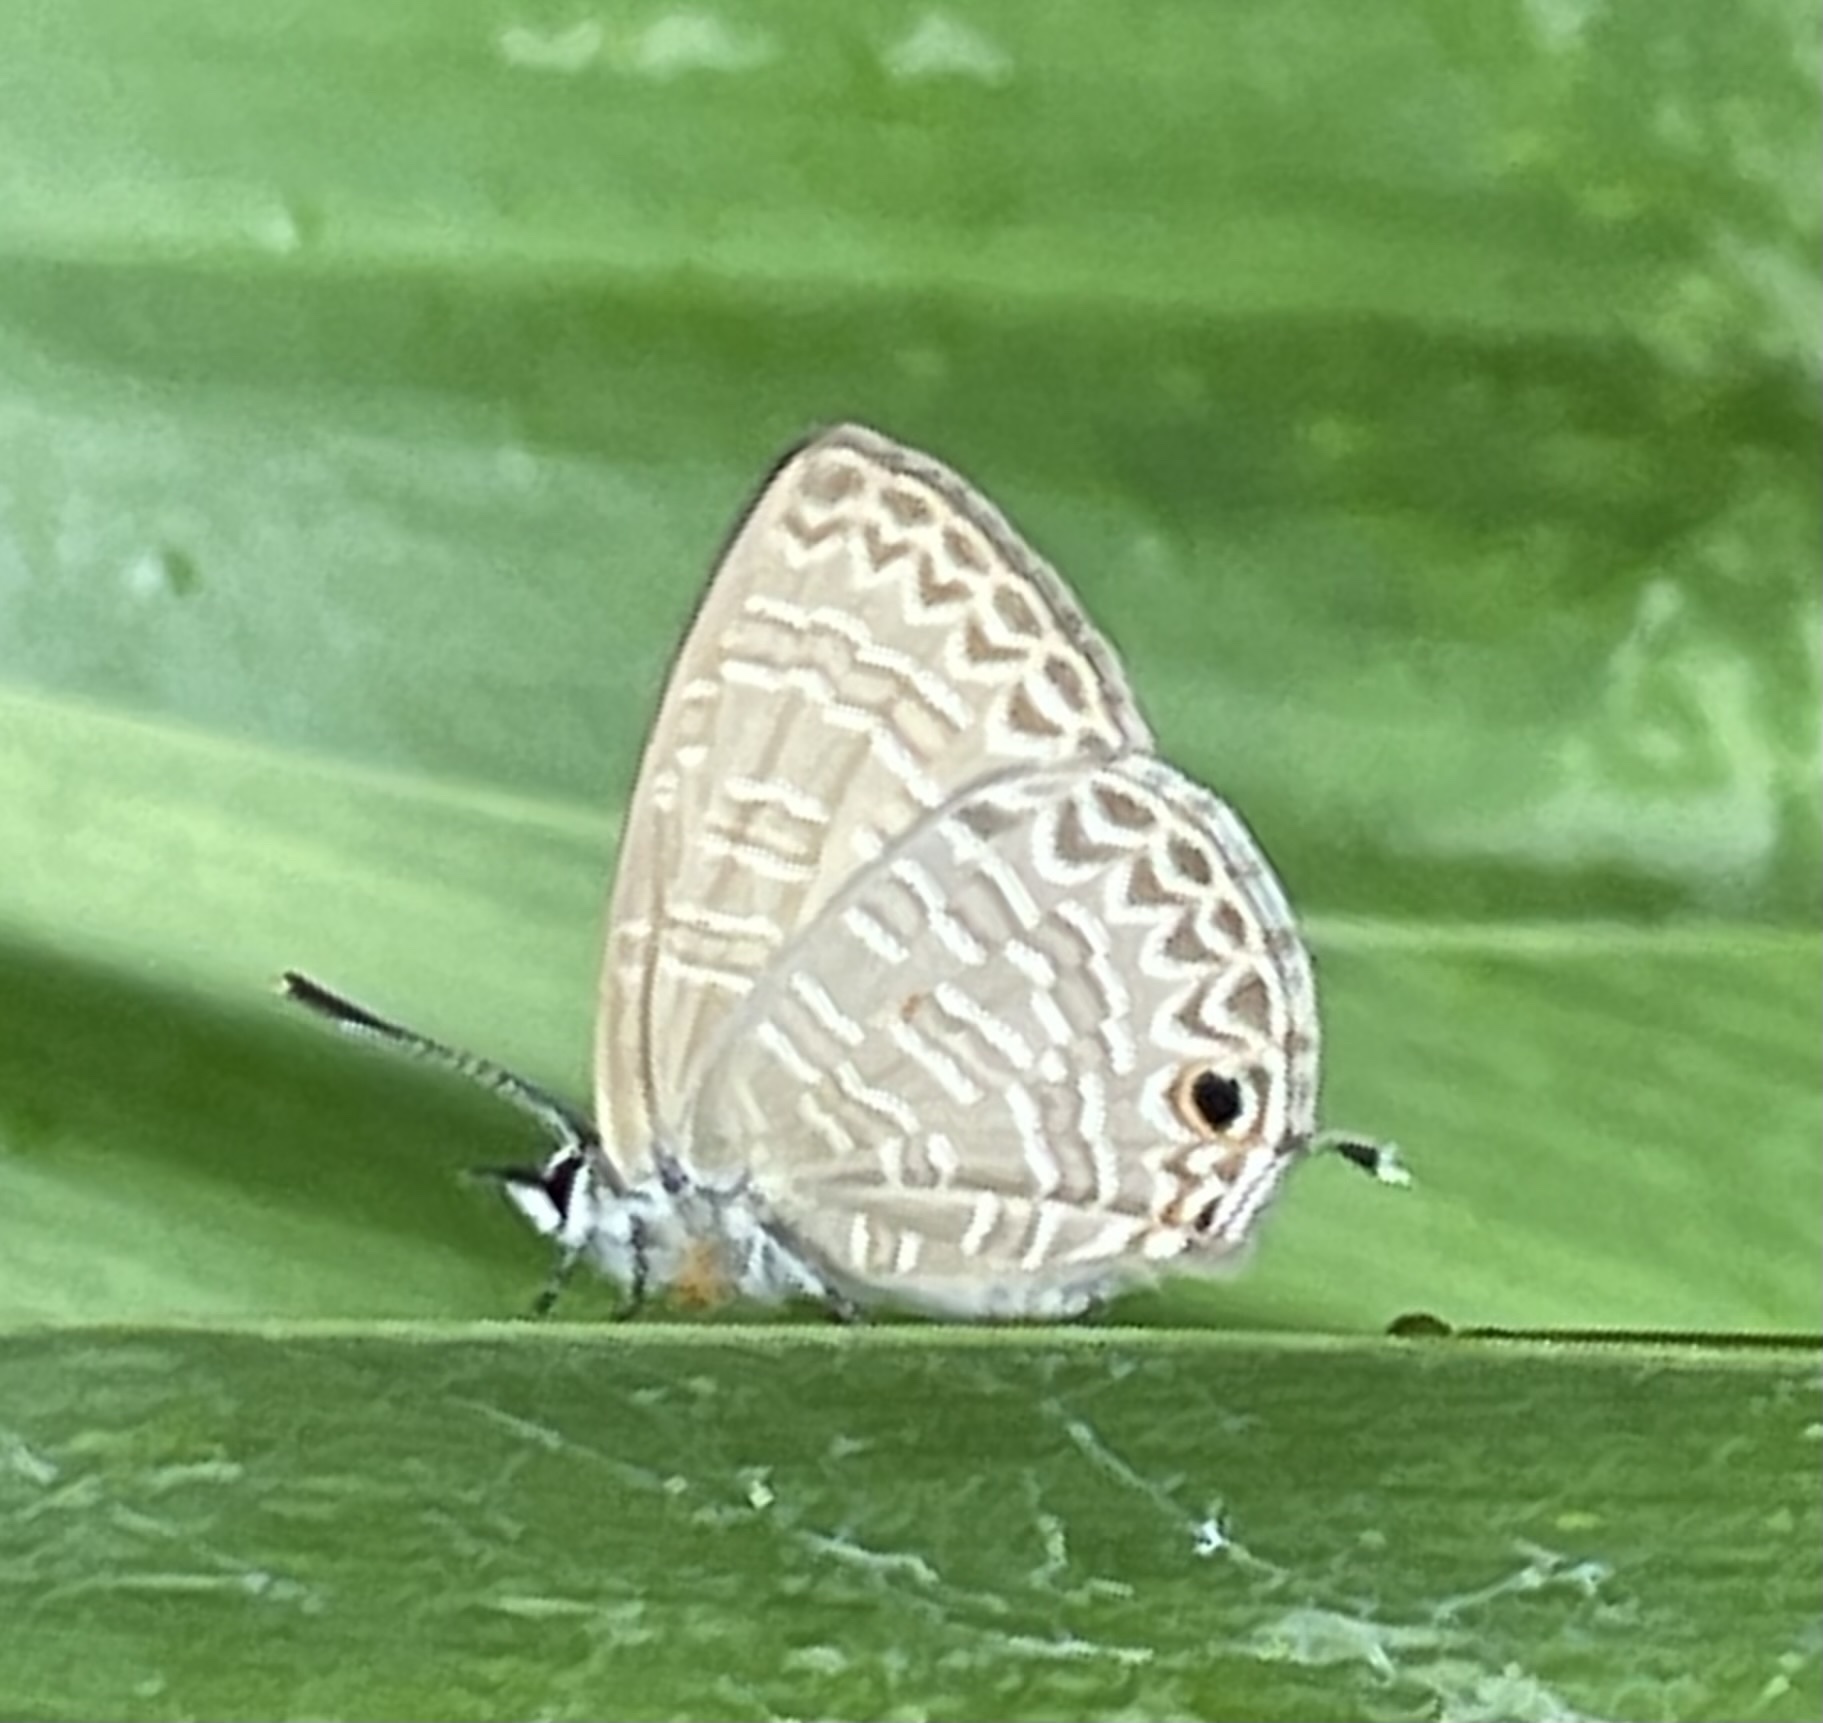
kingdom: Animalia
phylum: Arthropoda
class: Insecta
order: Lepidoptera
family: Lycaenidae
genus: Nacaduba
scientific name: Nacaduba berenice
